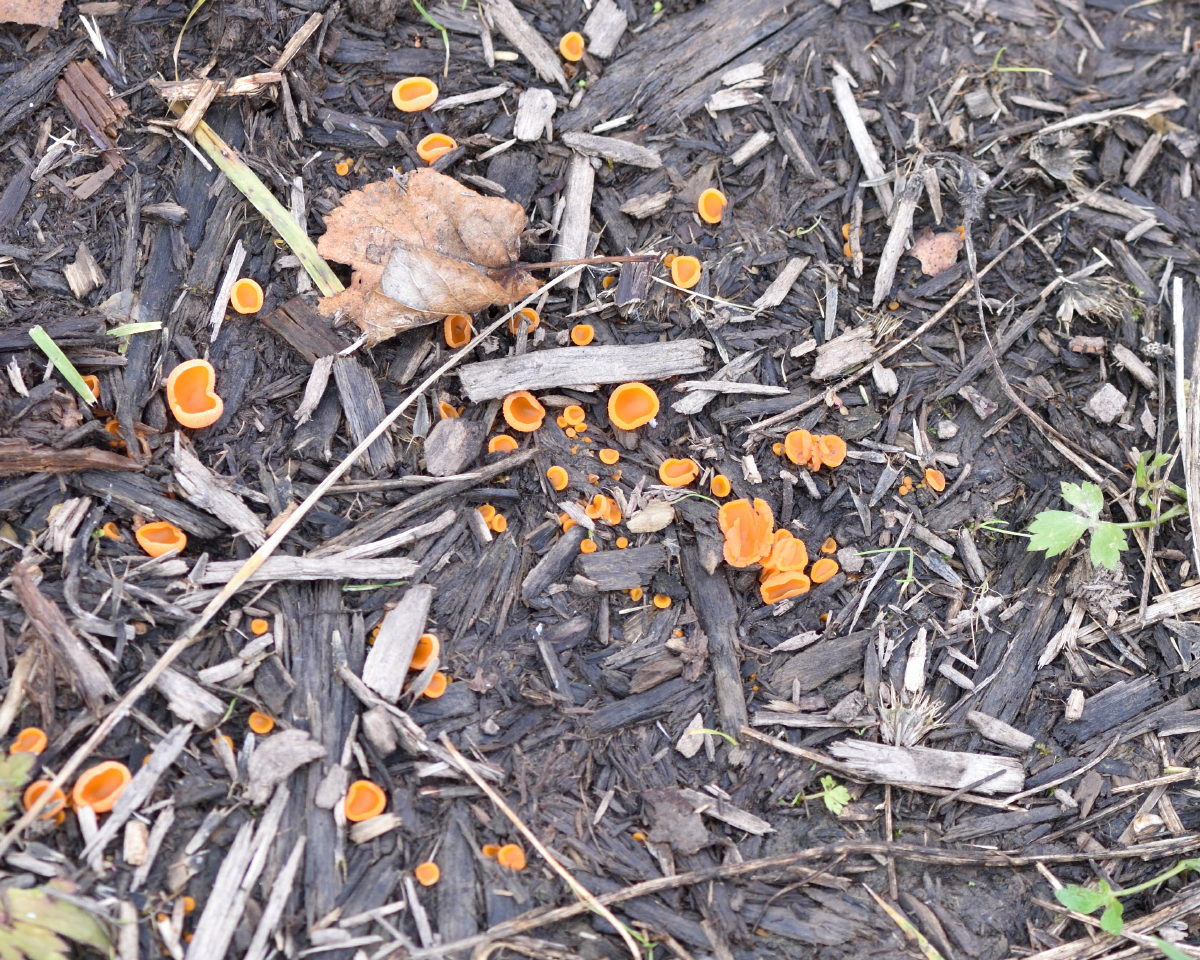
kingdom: Fungi
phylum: Ascomycota
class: Pezizomycetes
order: Pezizales
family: Pyronemataceae
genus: Aleuria
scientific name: Aleuria aurantia
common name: Orange peel fungus
